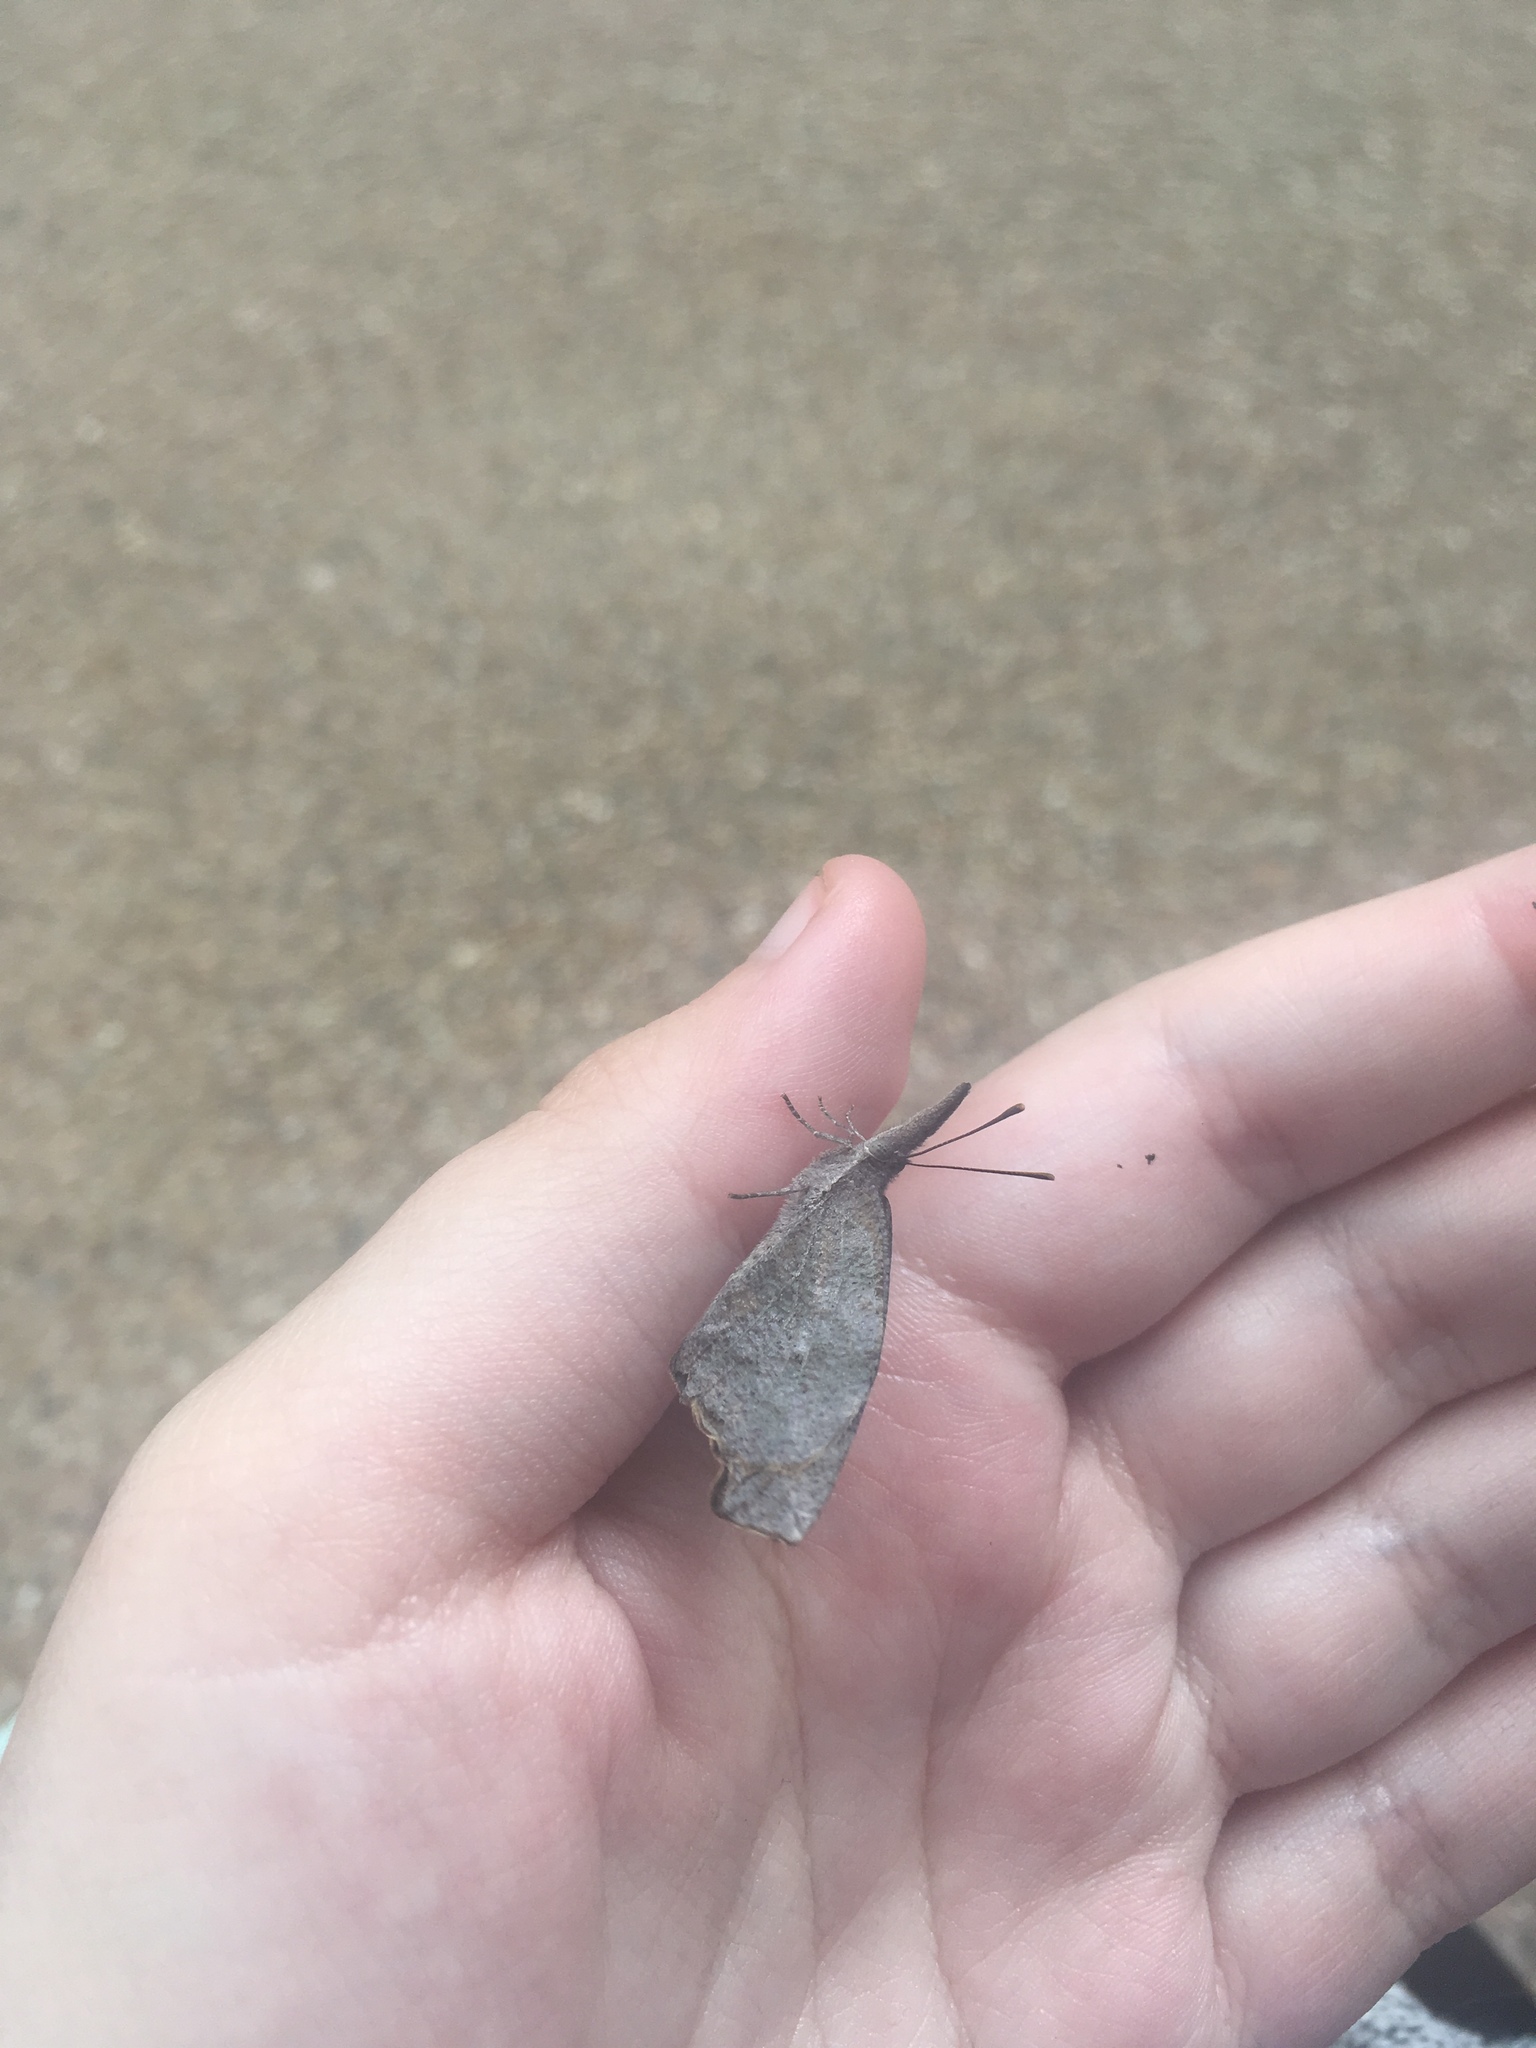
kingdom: Animalia
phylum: Arthropoda
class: Insecta
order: Lepidoptera
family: Nymphalidae
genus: Libytheana
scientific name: Libytheana carinenta
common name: American snout
